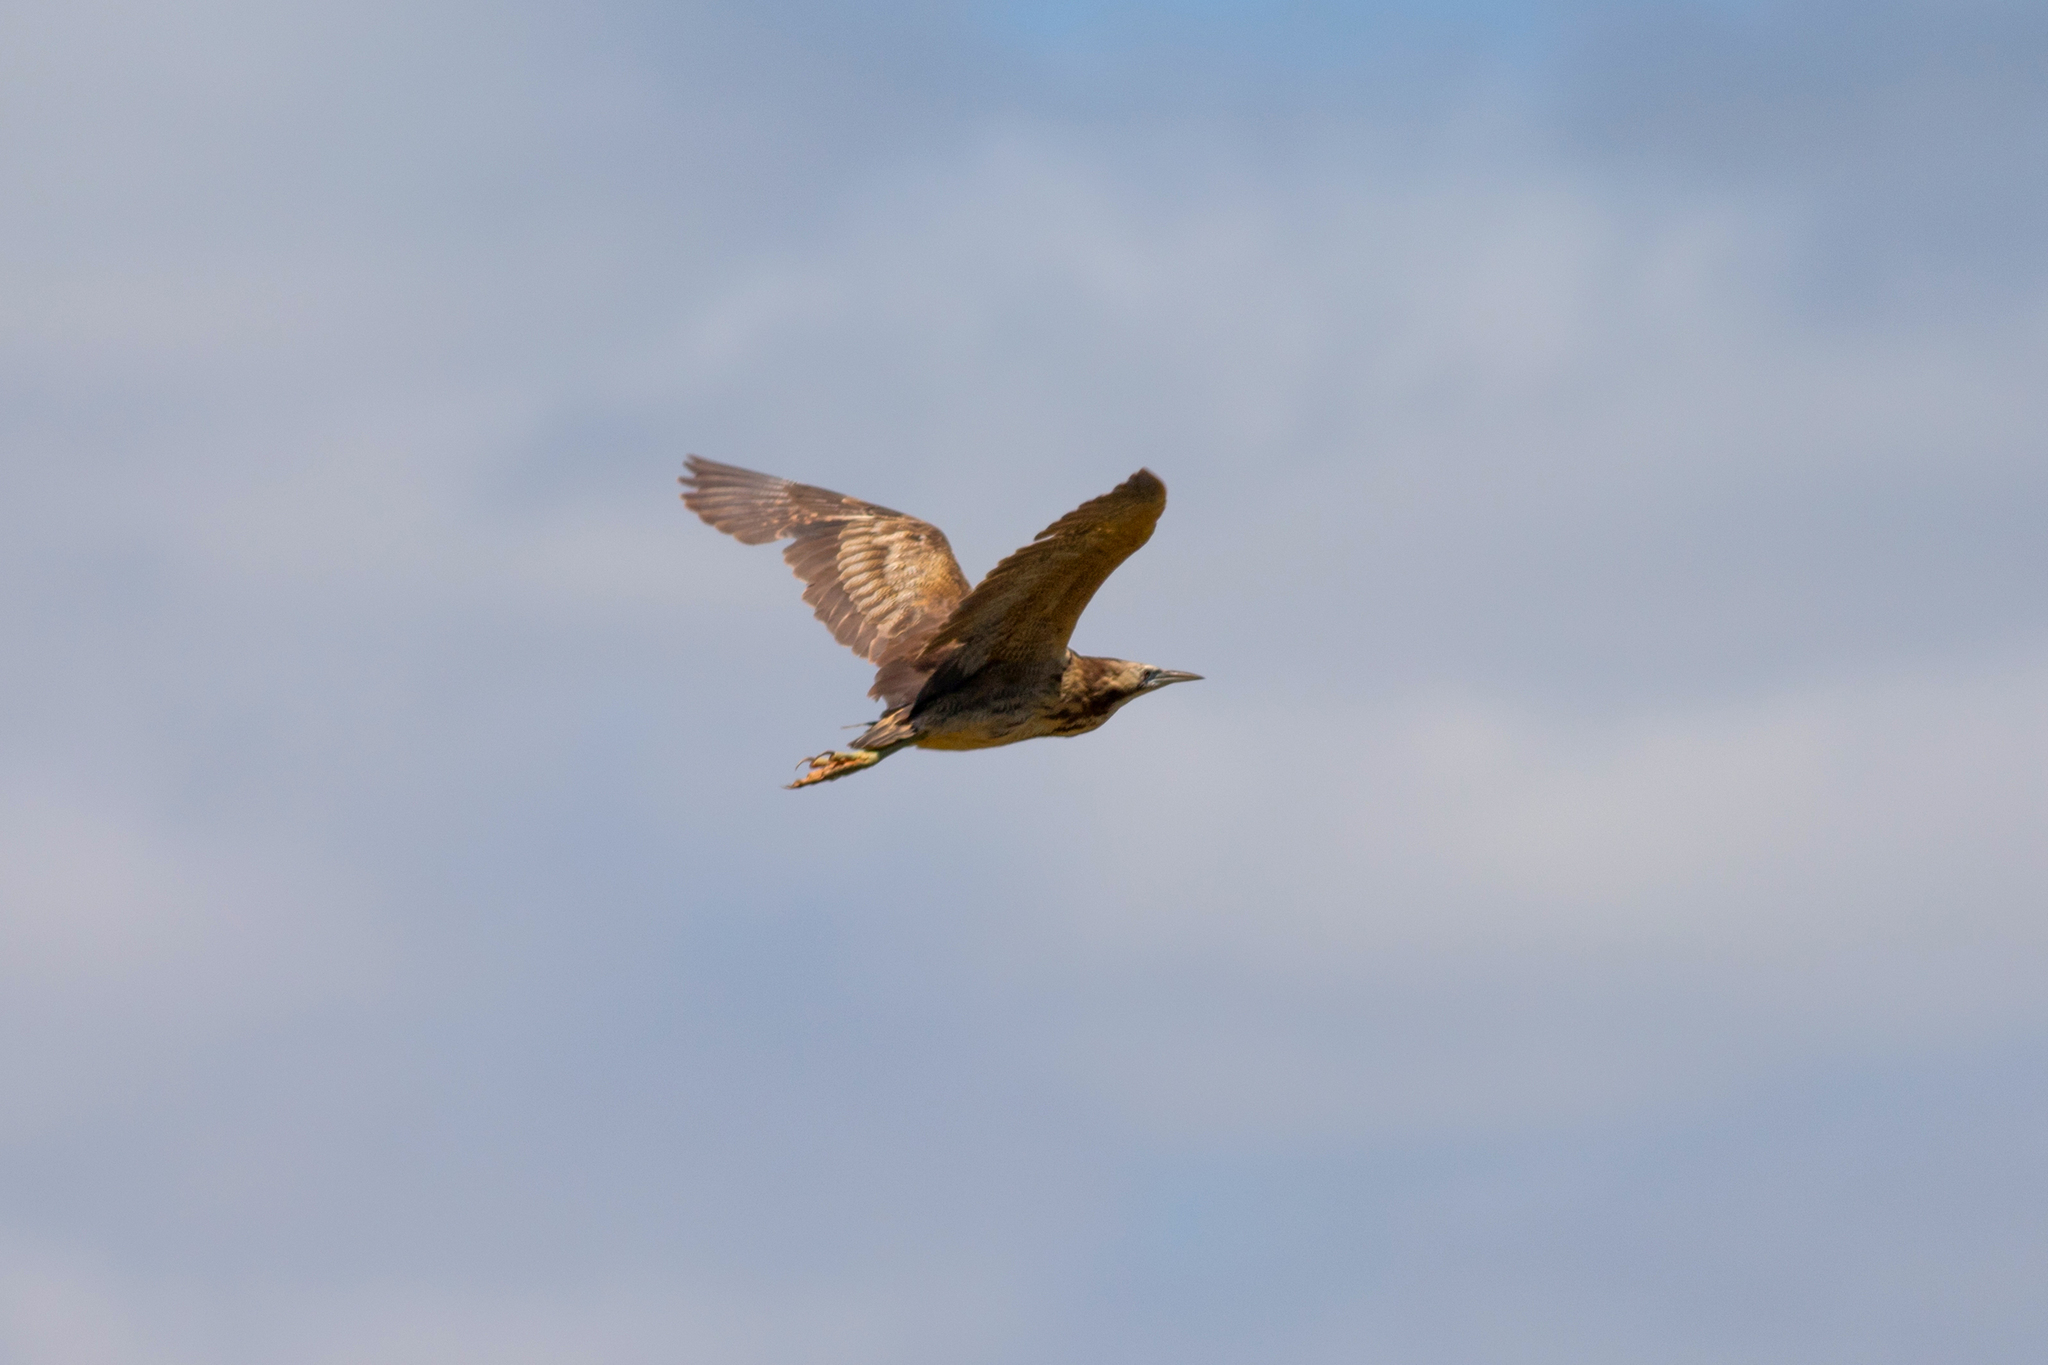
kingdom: Animalia
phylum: Chordata
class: Aves
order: Pelecaniformes
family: Ardeidae
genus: Botaurus
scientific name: Botaurus poiciloptilus
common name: Australasian bittern
